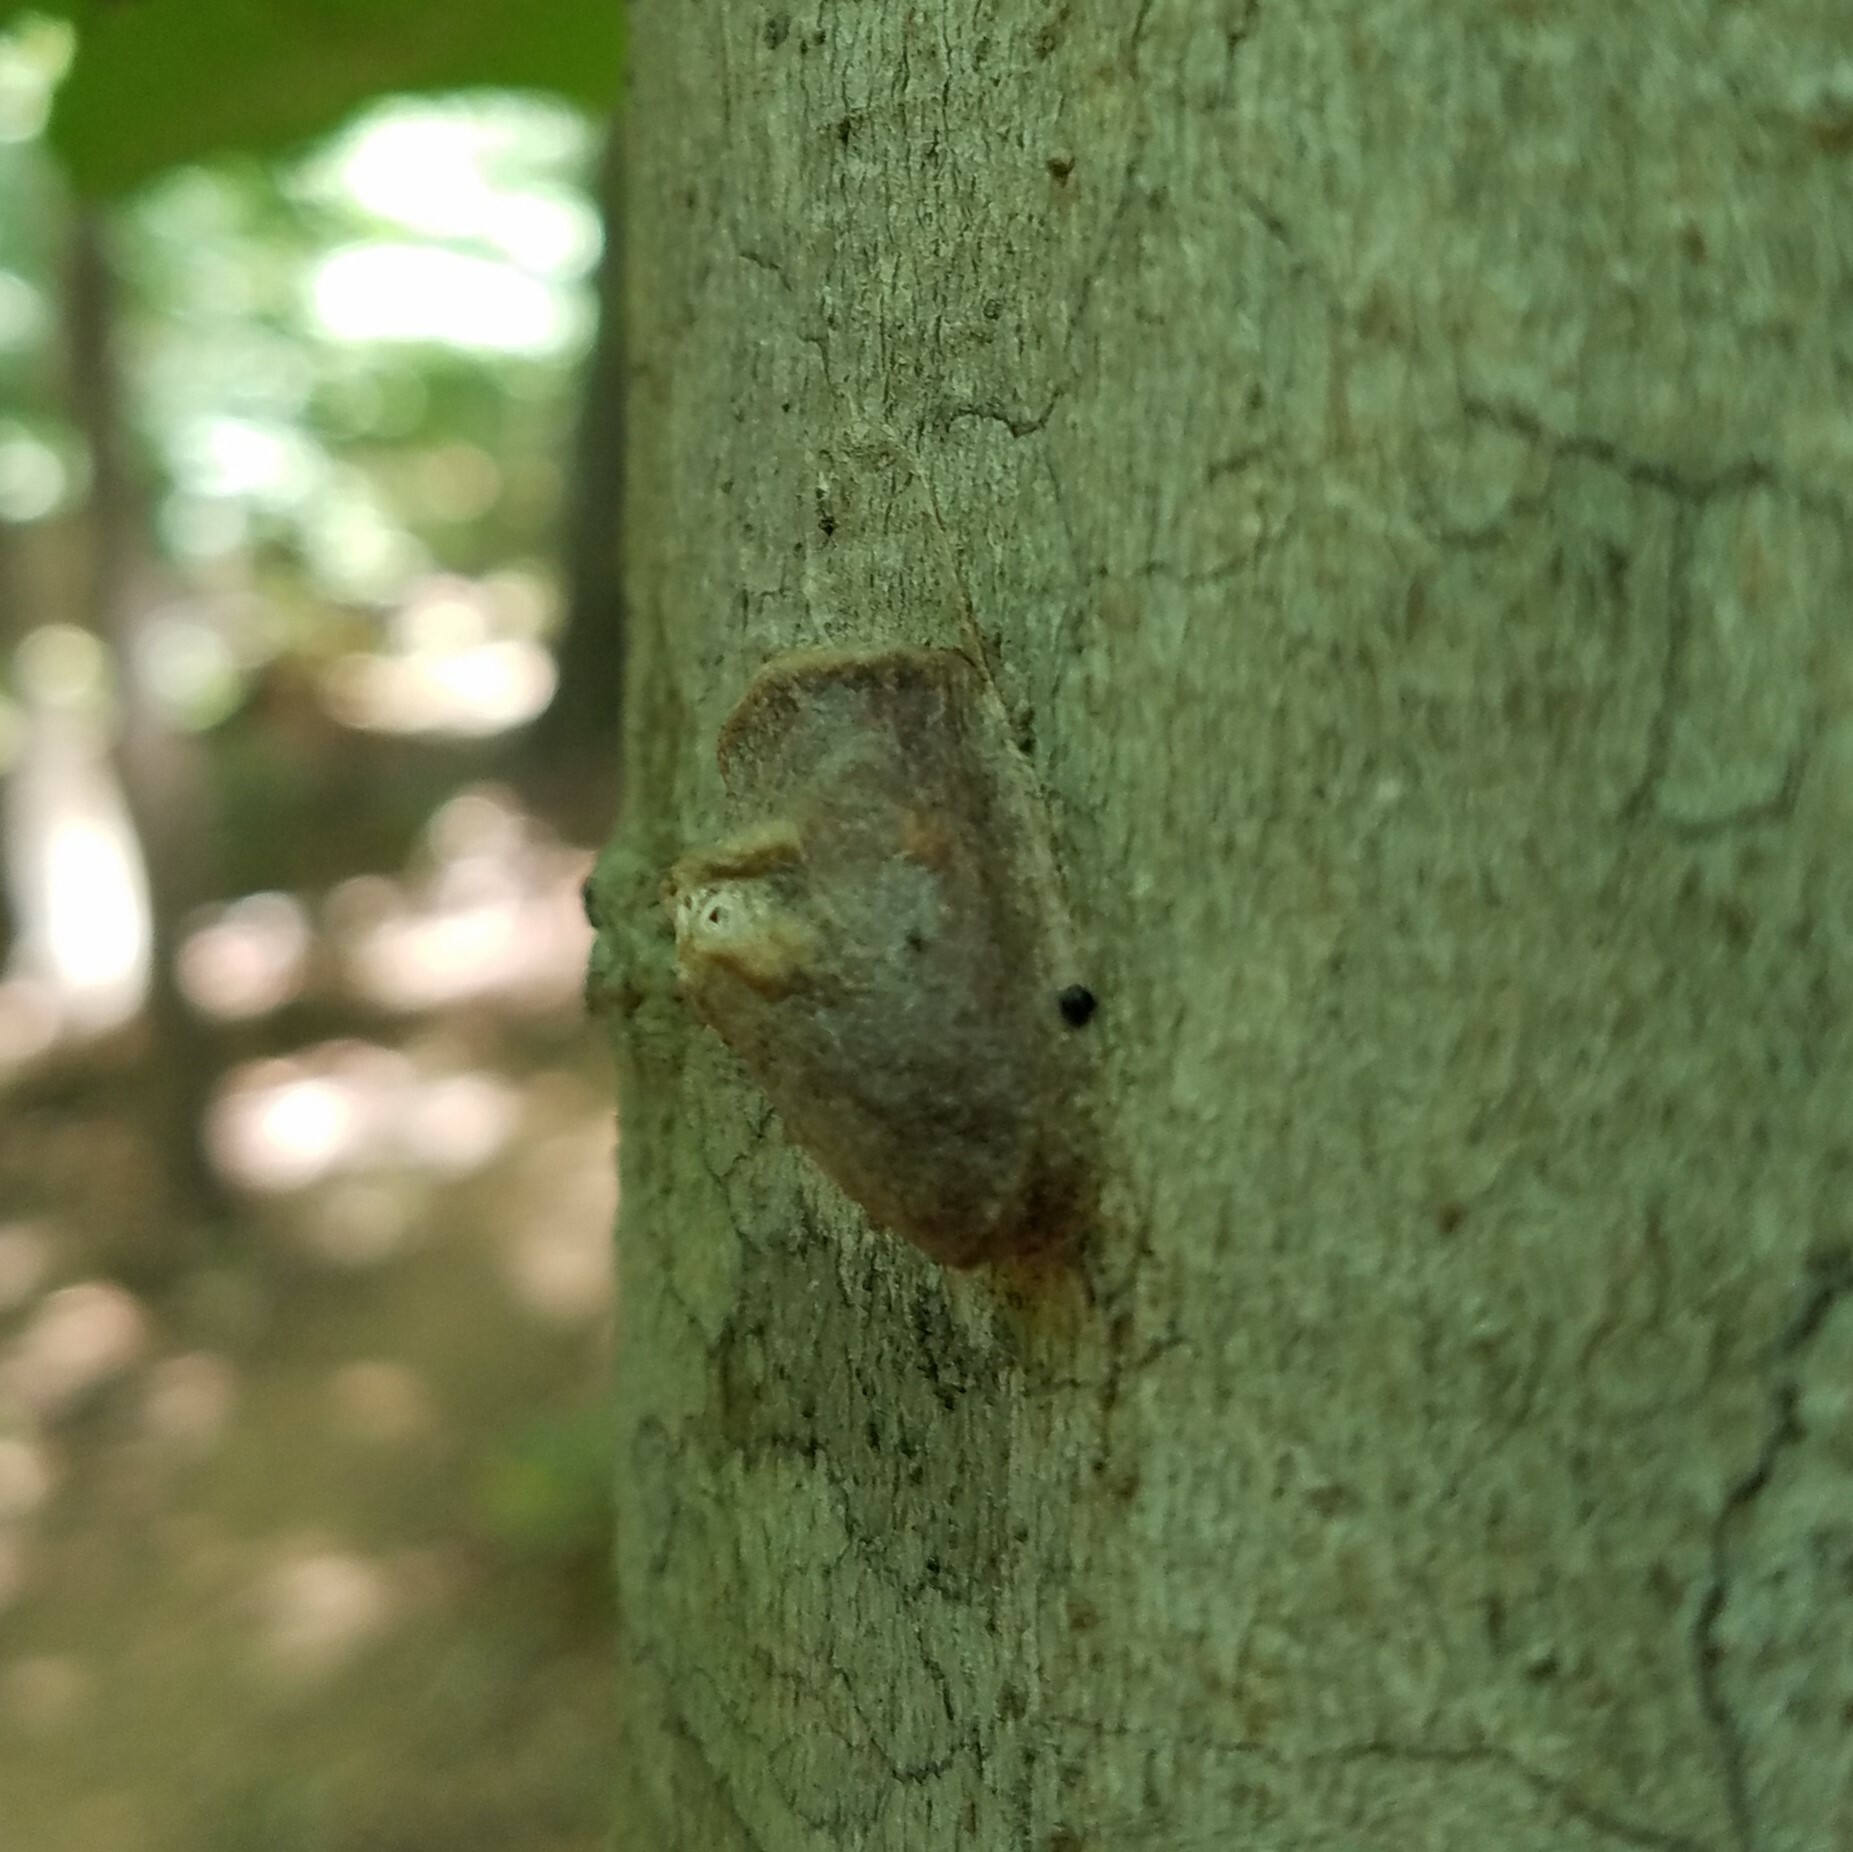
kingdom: Animalia
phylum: Arthropoda
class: Insecta
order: Lepidoptera
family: Megalopygidae
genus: Megalopyge
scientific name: Megalopyge
